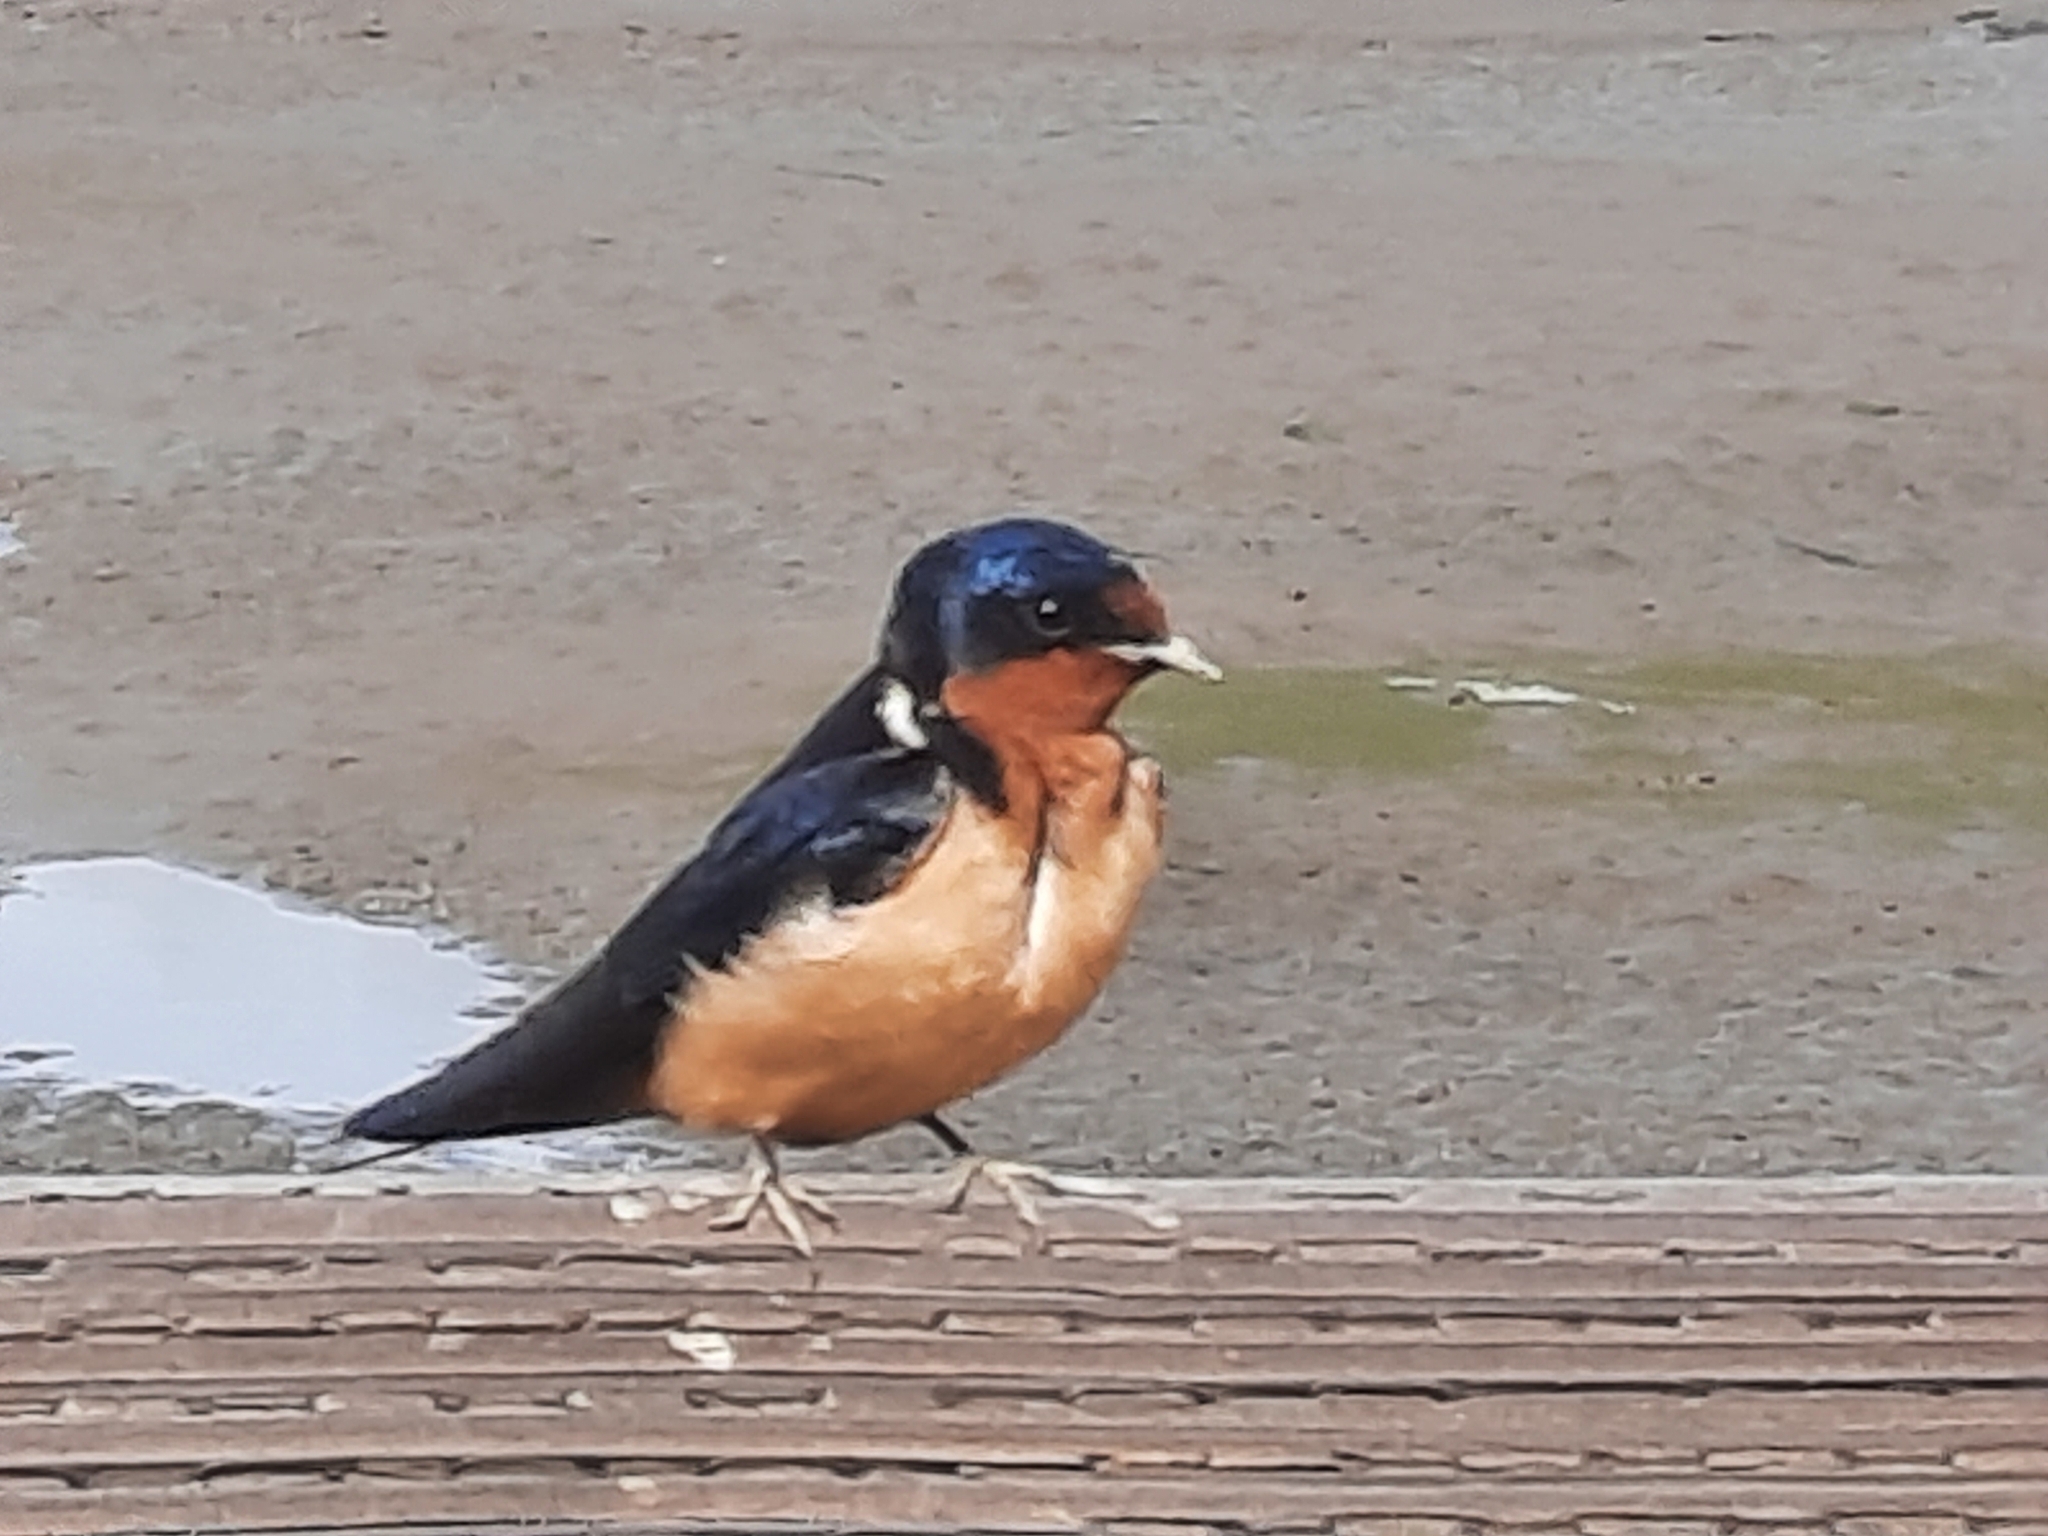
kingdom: Animalia
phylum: Chordata
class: Aves
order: Passeriformes
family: Hirundinidae
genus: Hirundo
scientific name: Hirundo rustica
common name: Barn swallow
